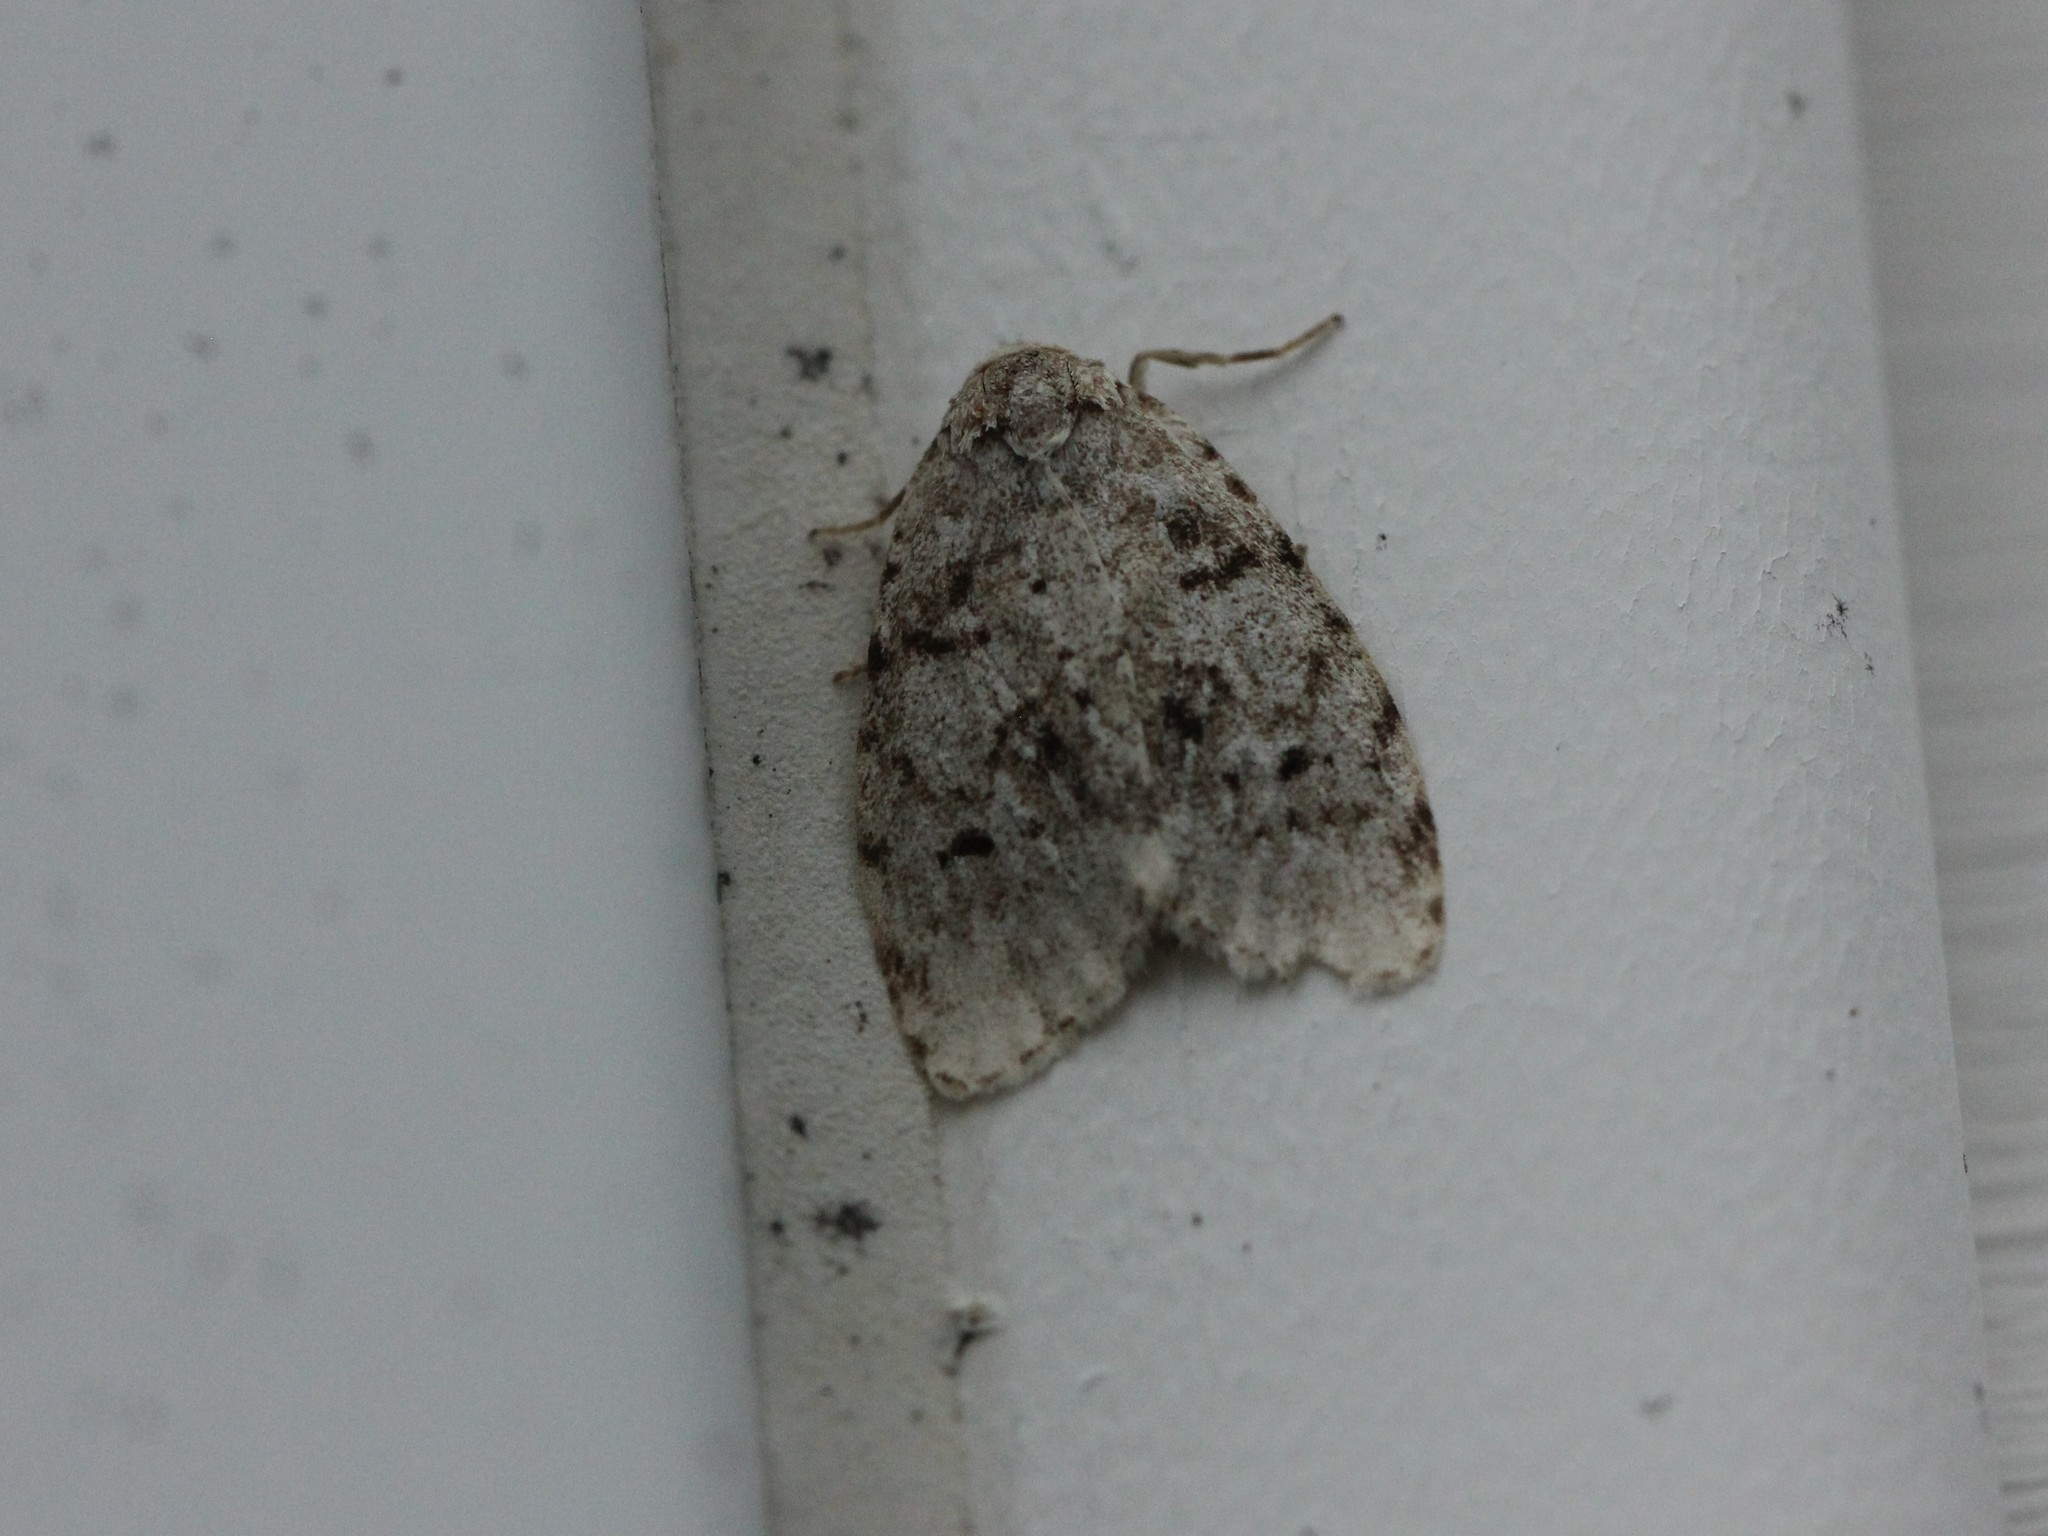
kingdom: Animalia
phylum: Arthropoda
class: Insecta
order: Lepidoptera
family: Erebidae
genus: Clemensia
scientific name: Clemensia albata
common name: Little white lichen moth
